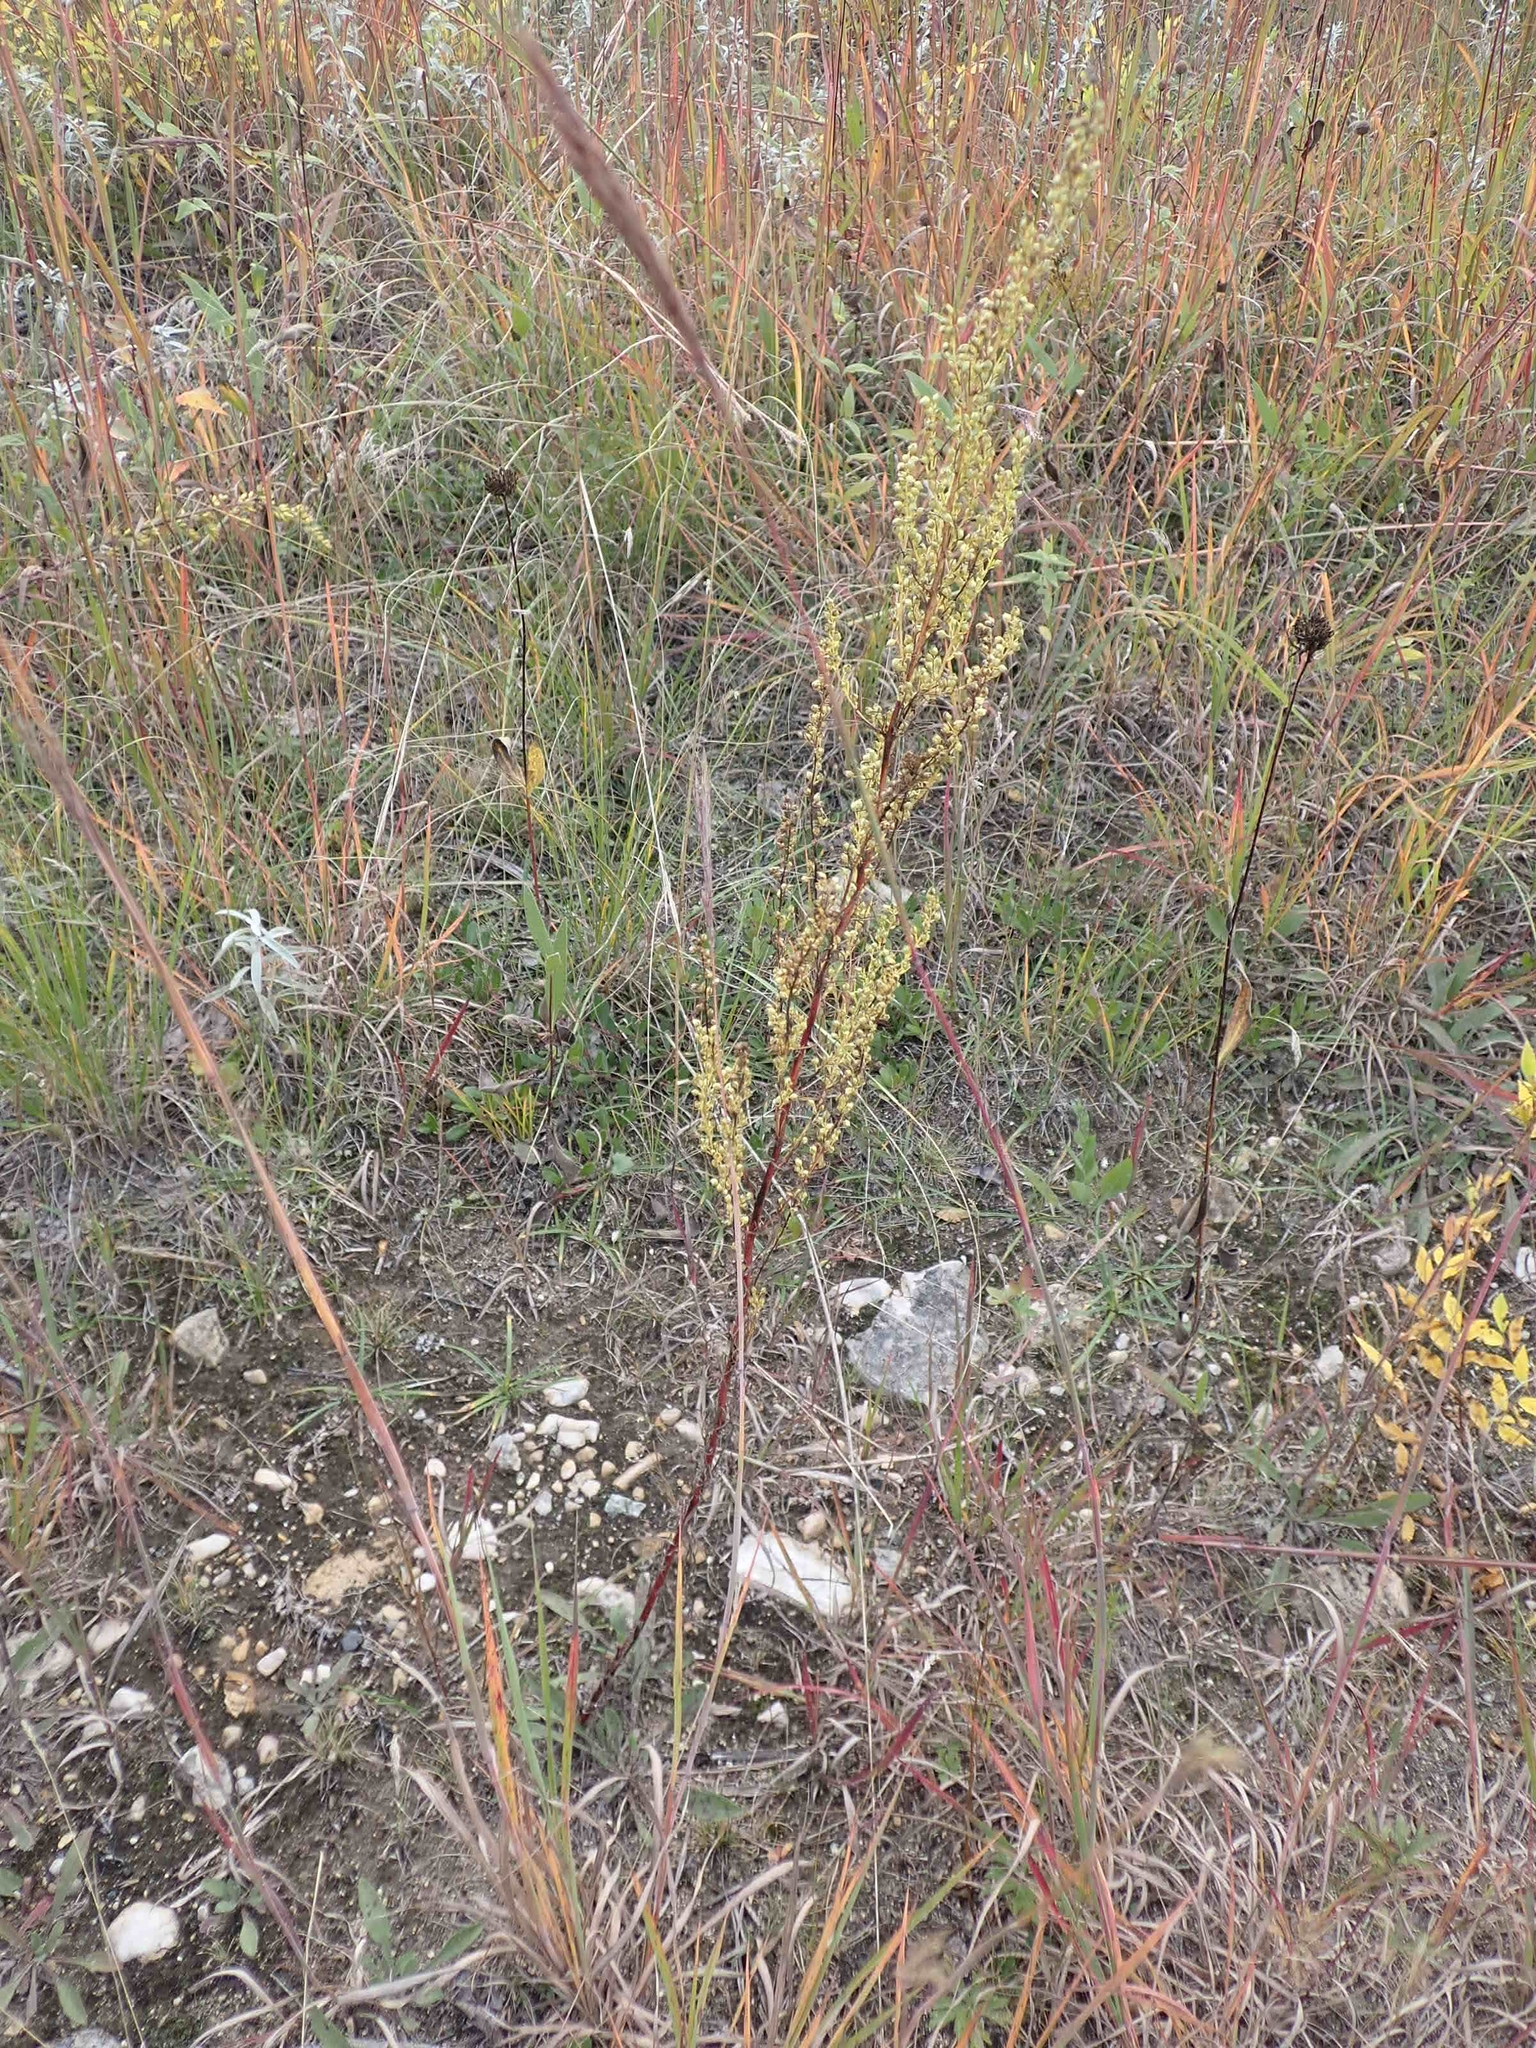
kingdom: Plantae
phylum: Tracheophyta
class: Magnoliopsida
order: Asterales
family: Asteraceae
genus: Artemisia
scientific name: Artemisia campestris
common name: Field wormwood
